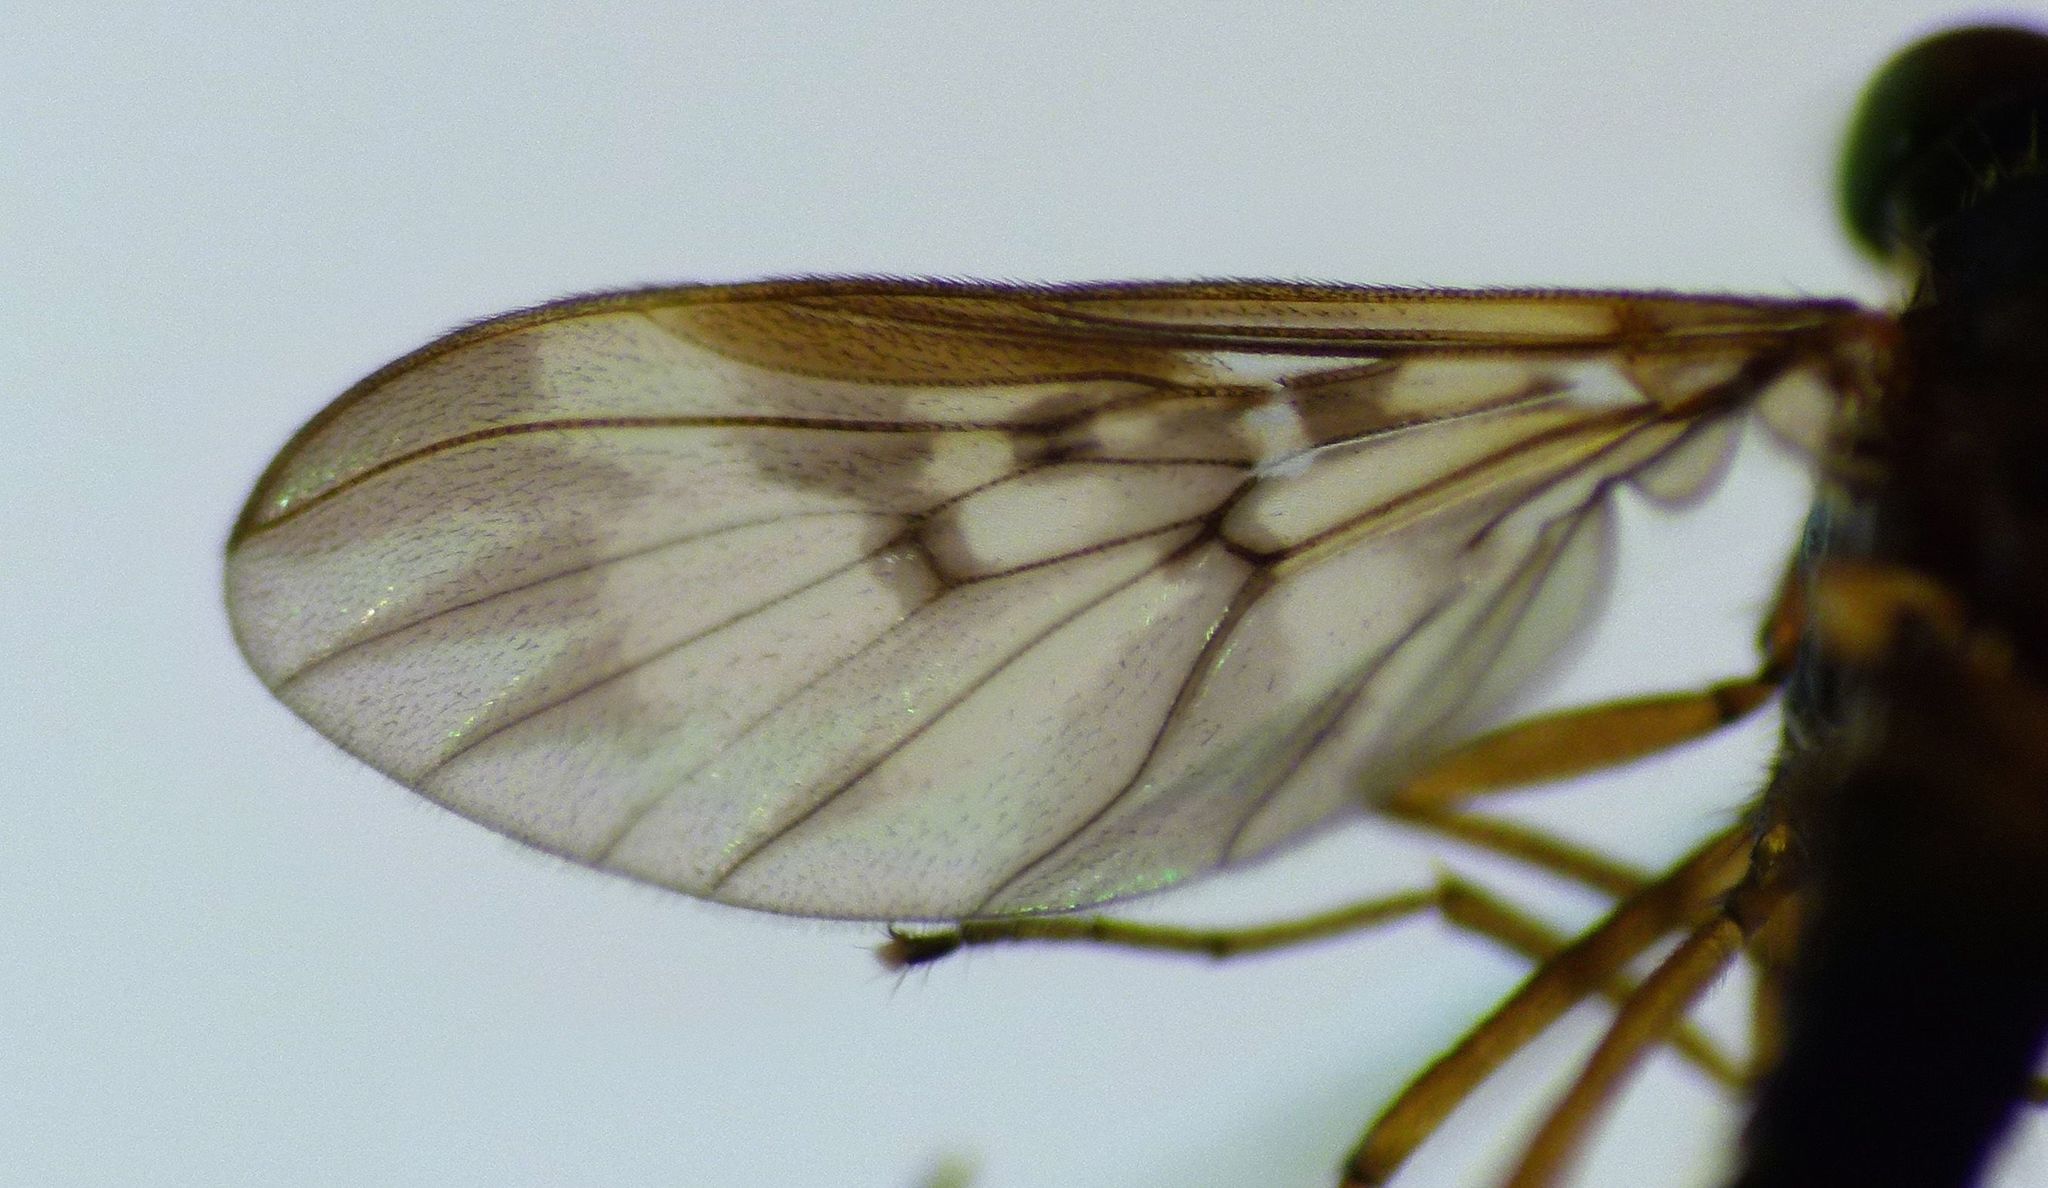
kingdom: Animalia
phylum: Arthropoda
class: Insecta
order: Diptera
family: Anisopodidae
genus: Sylvicola
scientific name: Sylvicola neozelandicus
